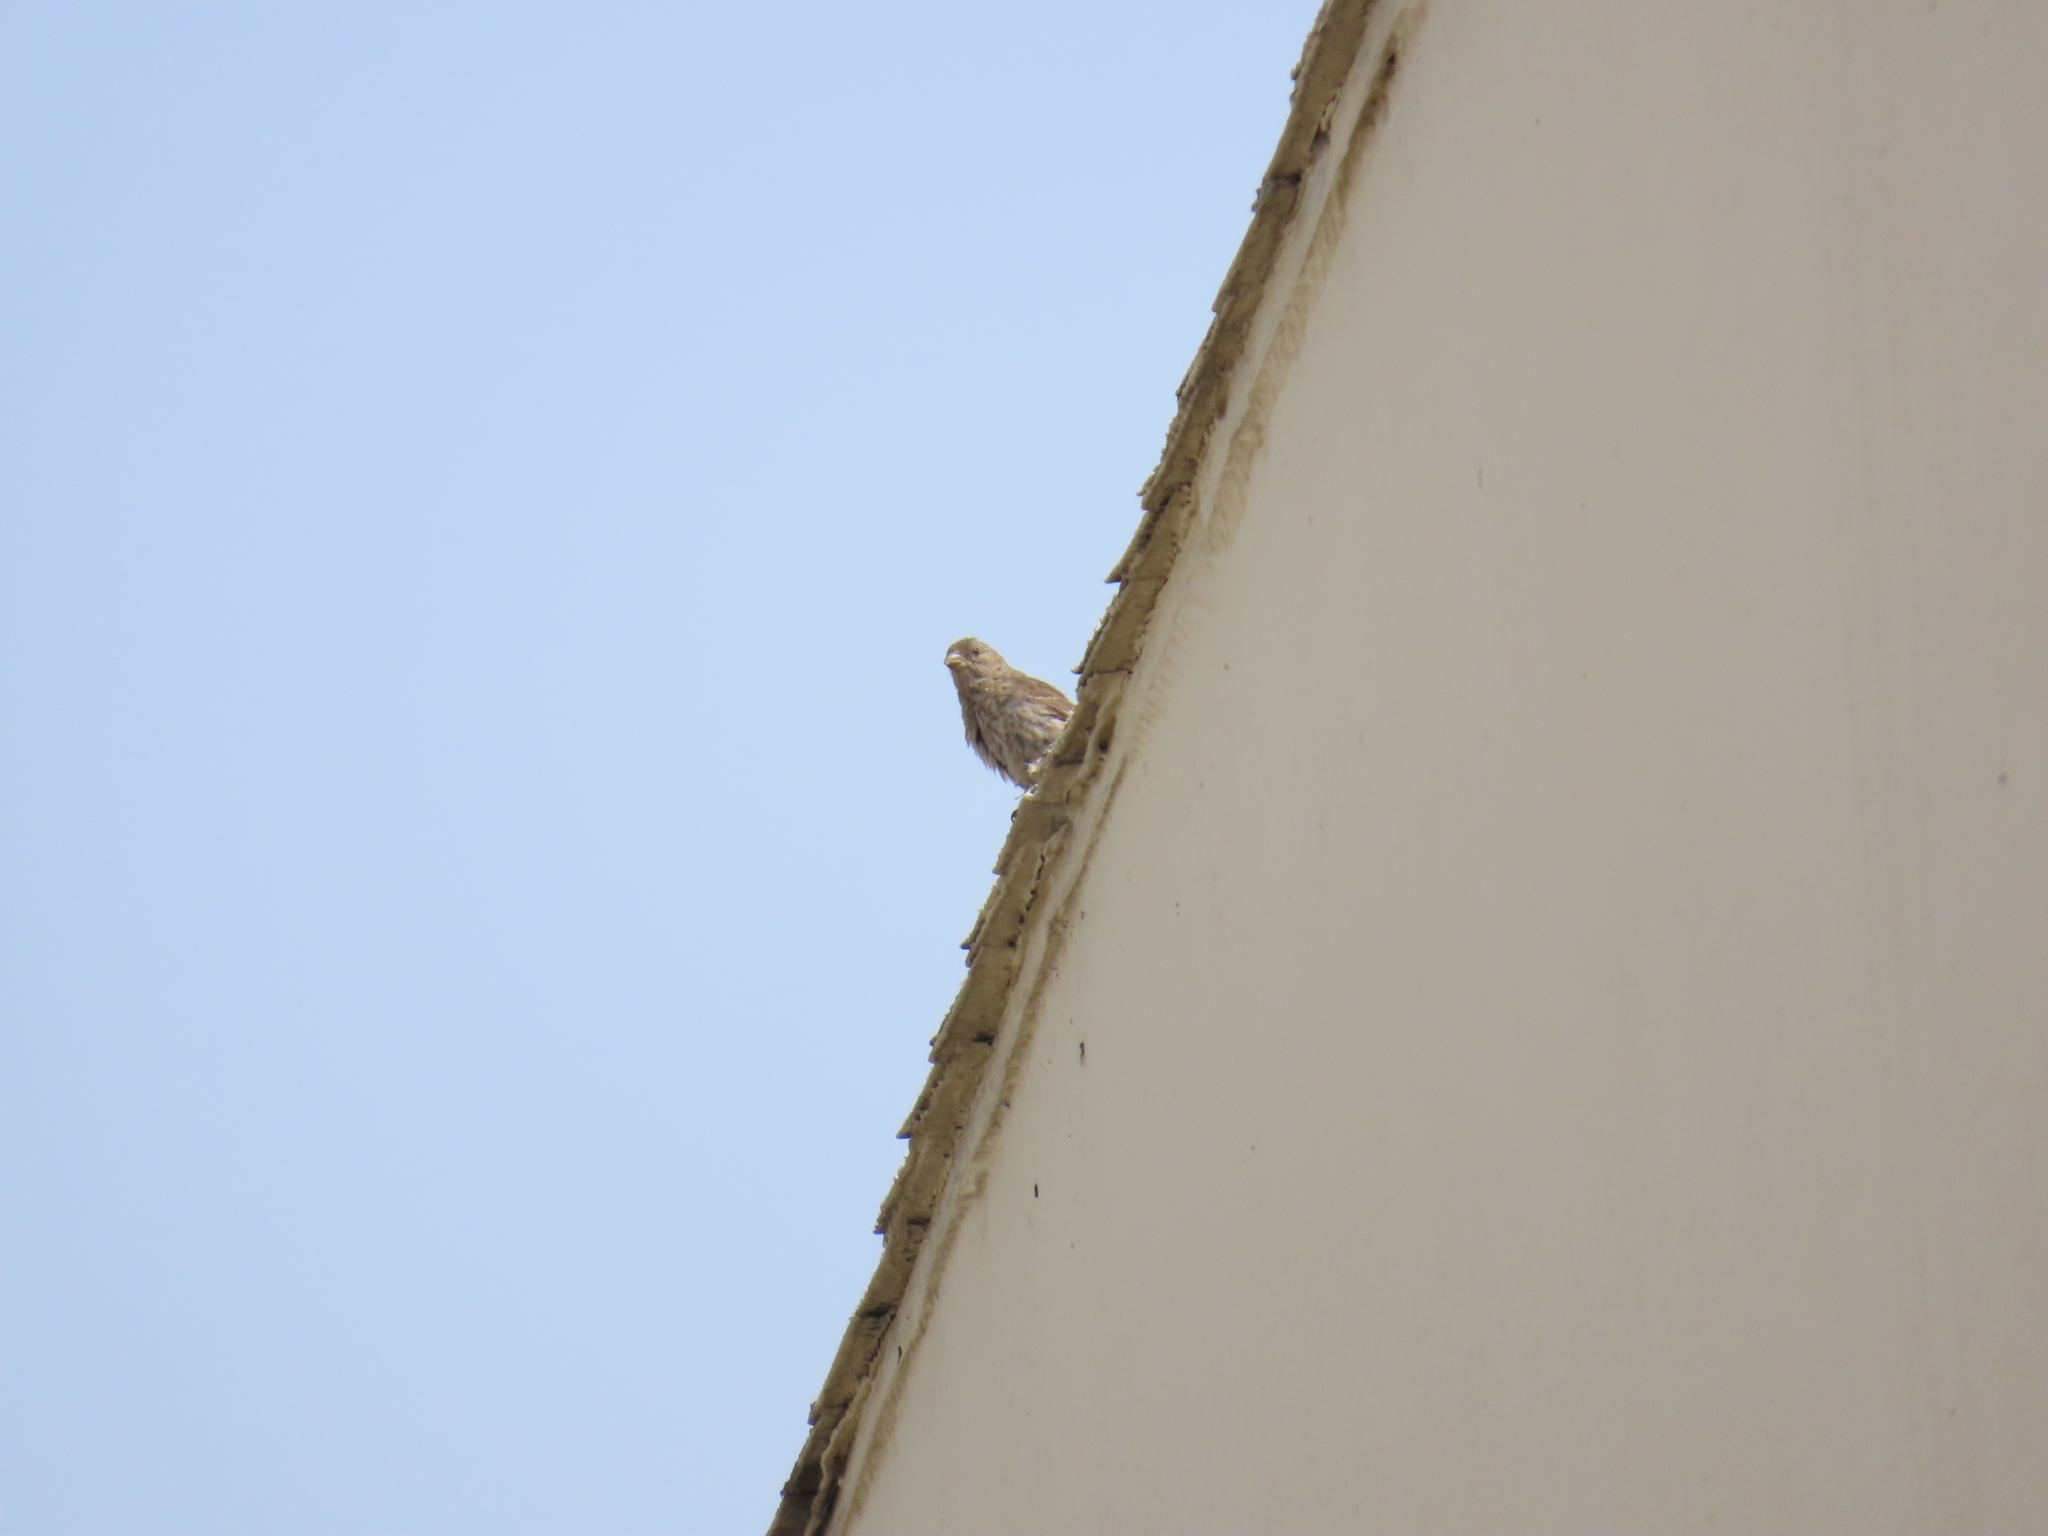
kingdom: Animalia
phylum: Chordata
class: Aves
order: Passeriformes
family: Fringillidae
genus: Haemorhous
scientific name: Haemorhous mexicanus
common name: House finch
